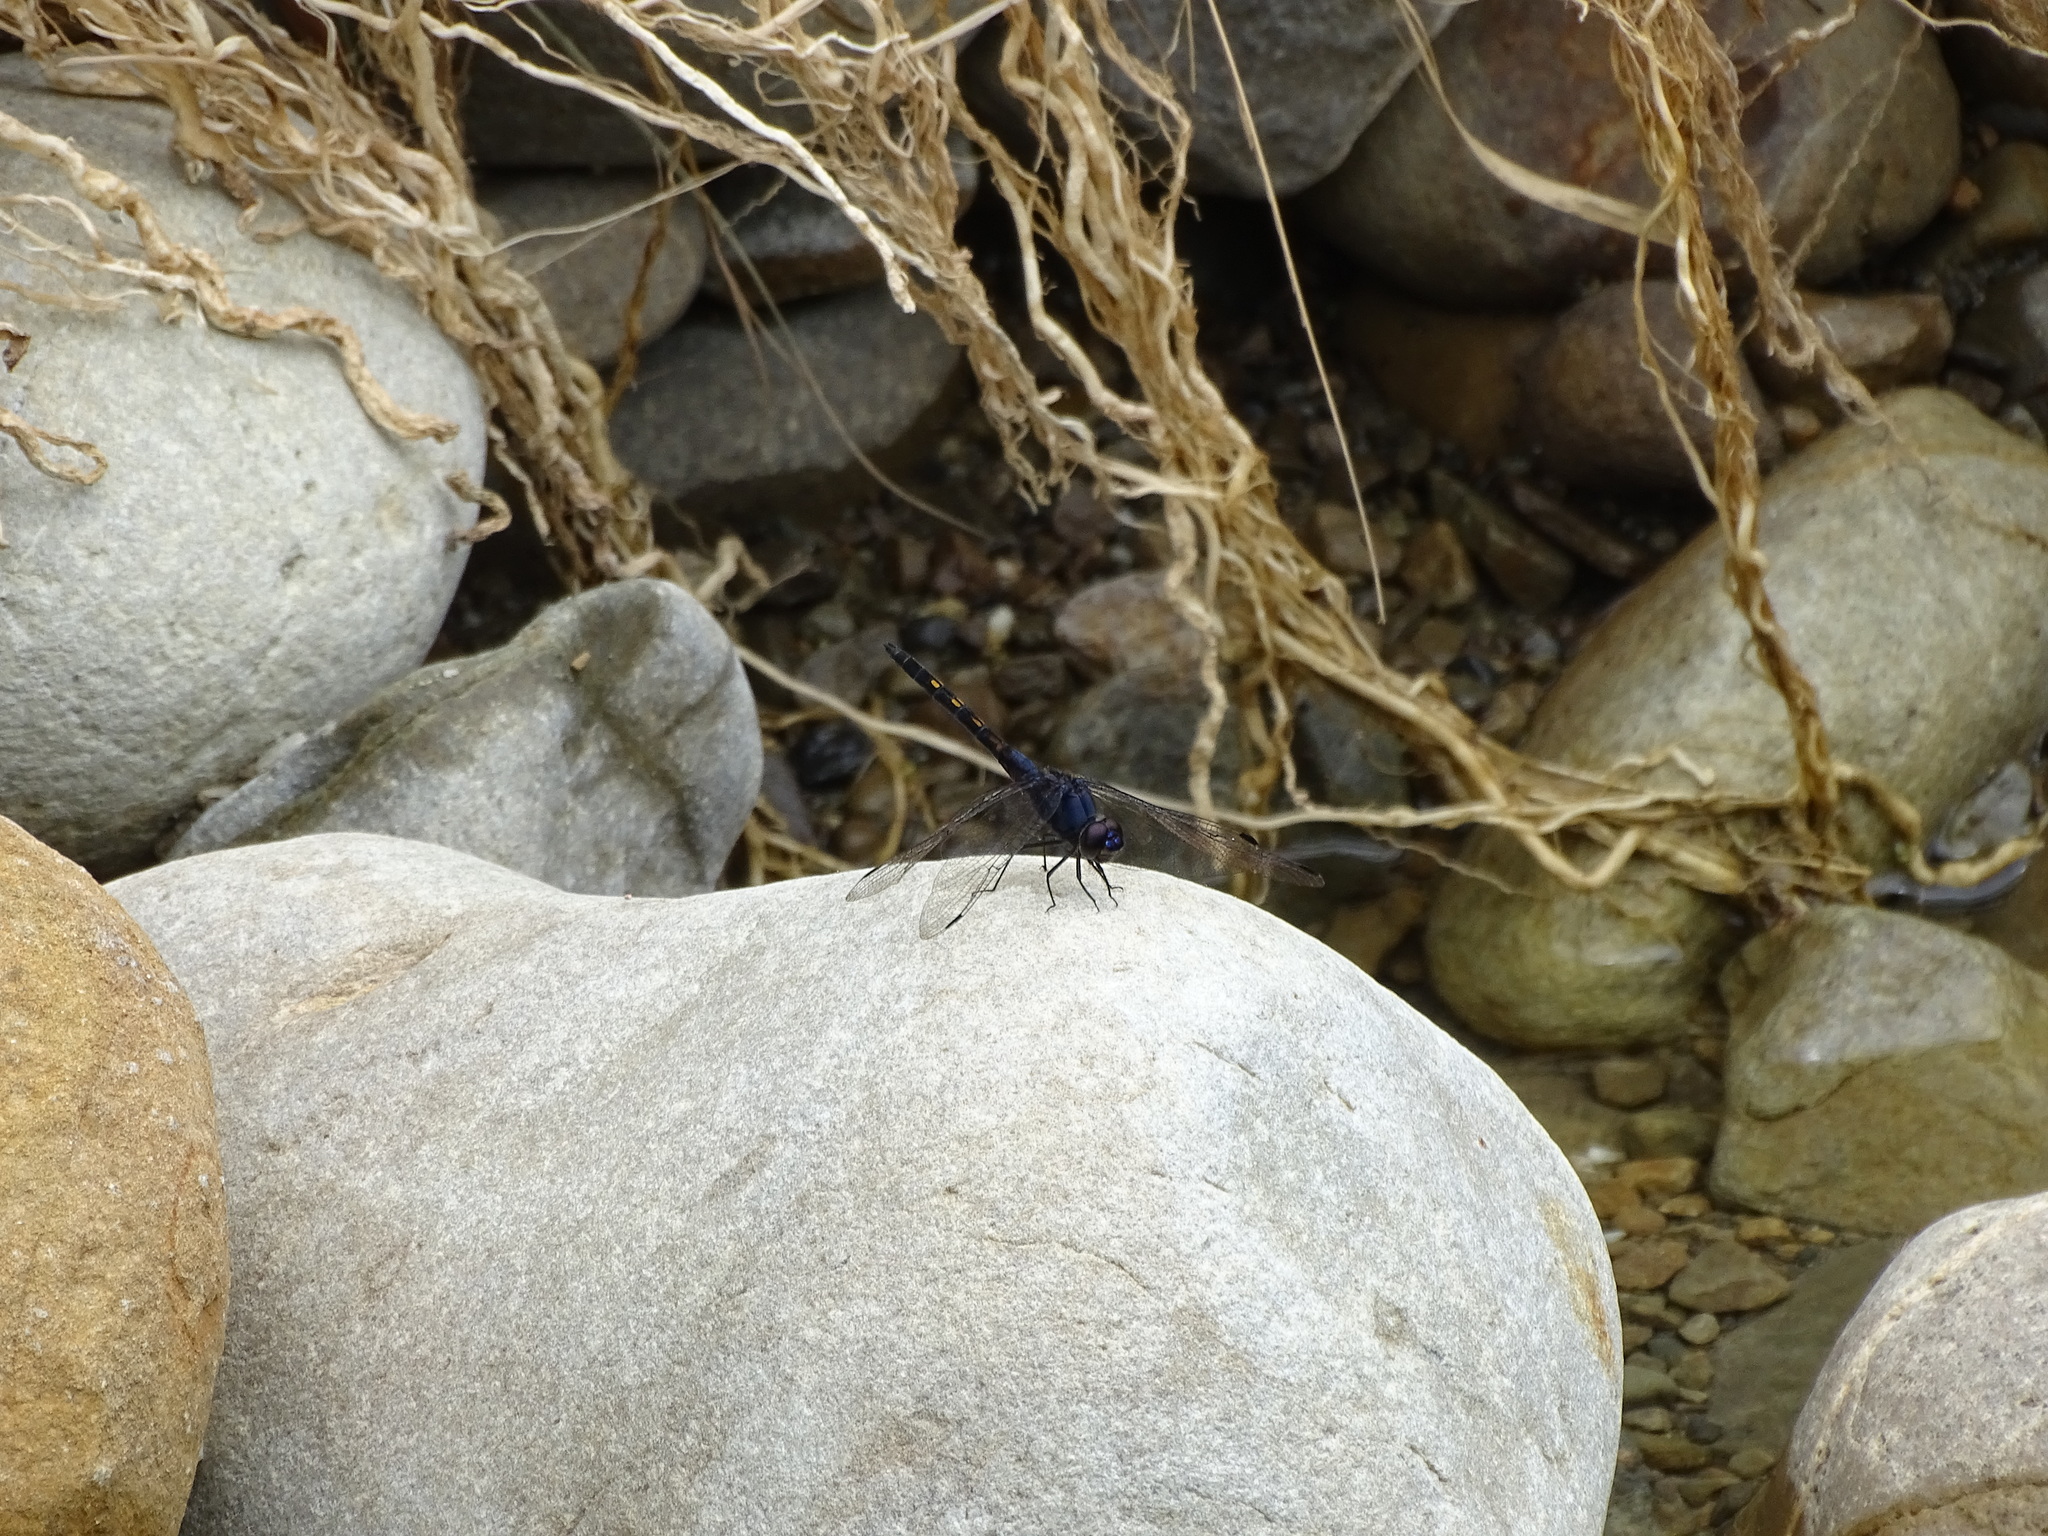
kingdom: Animalia
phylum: Arthropoda
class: Insecta
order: Odonata
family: Libellulidae
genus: Trithemis
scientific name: Trithemis festiva
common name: Indigo dropwing
